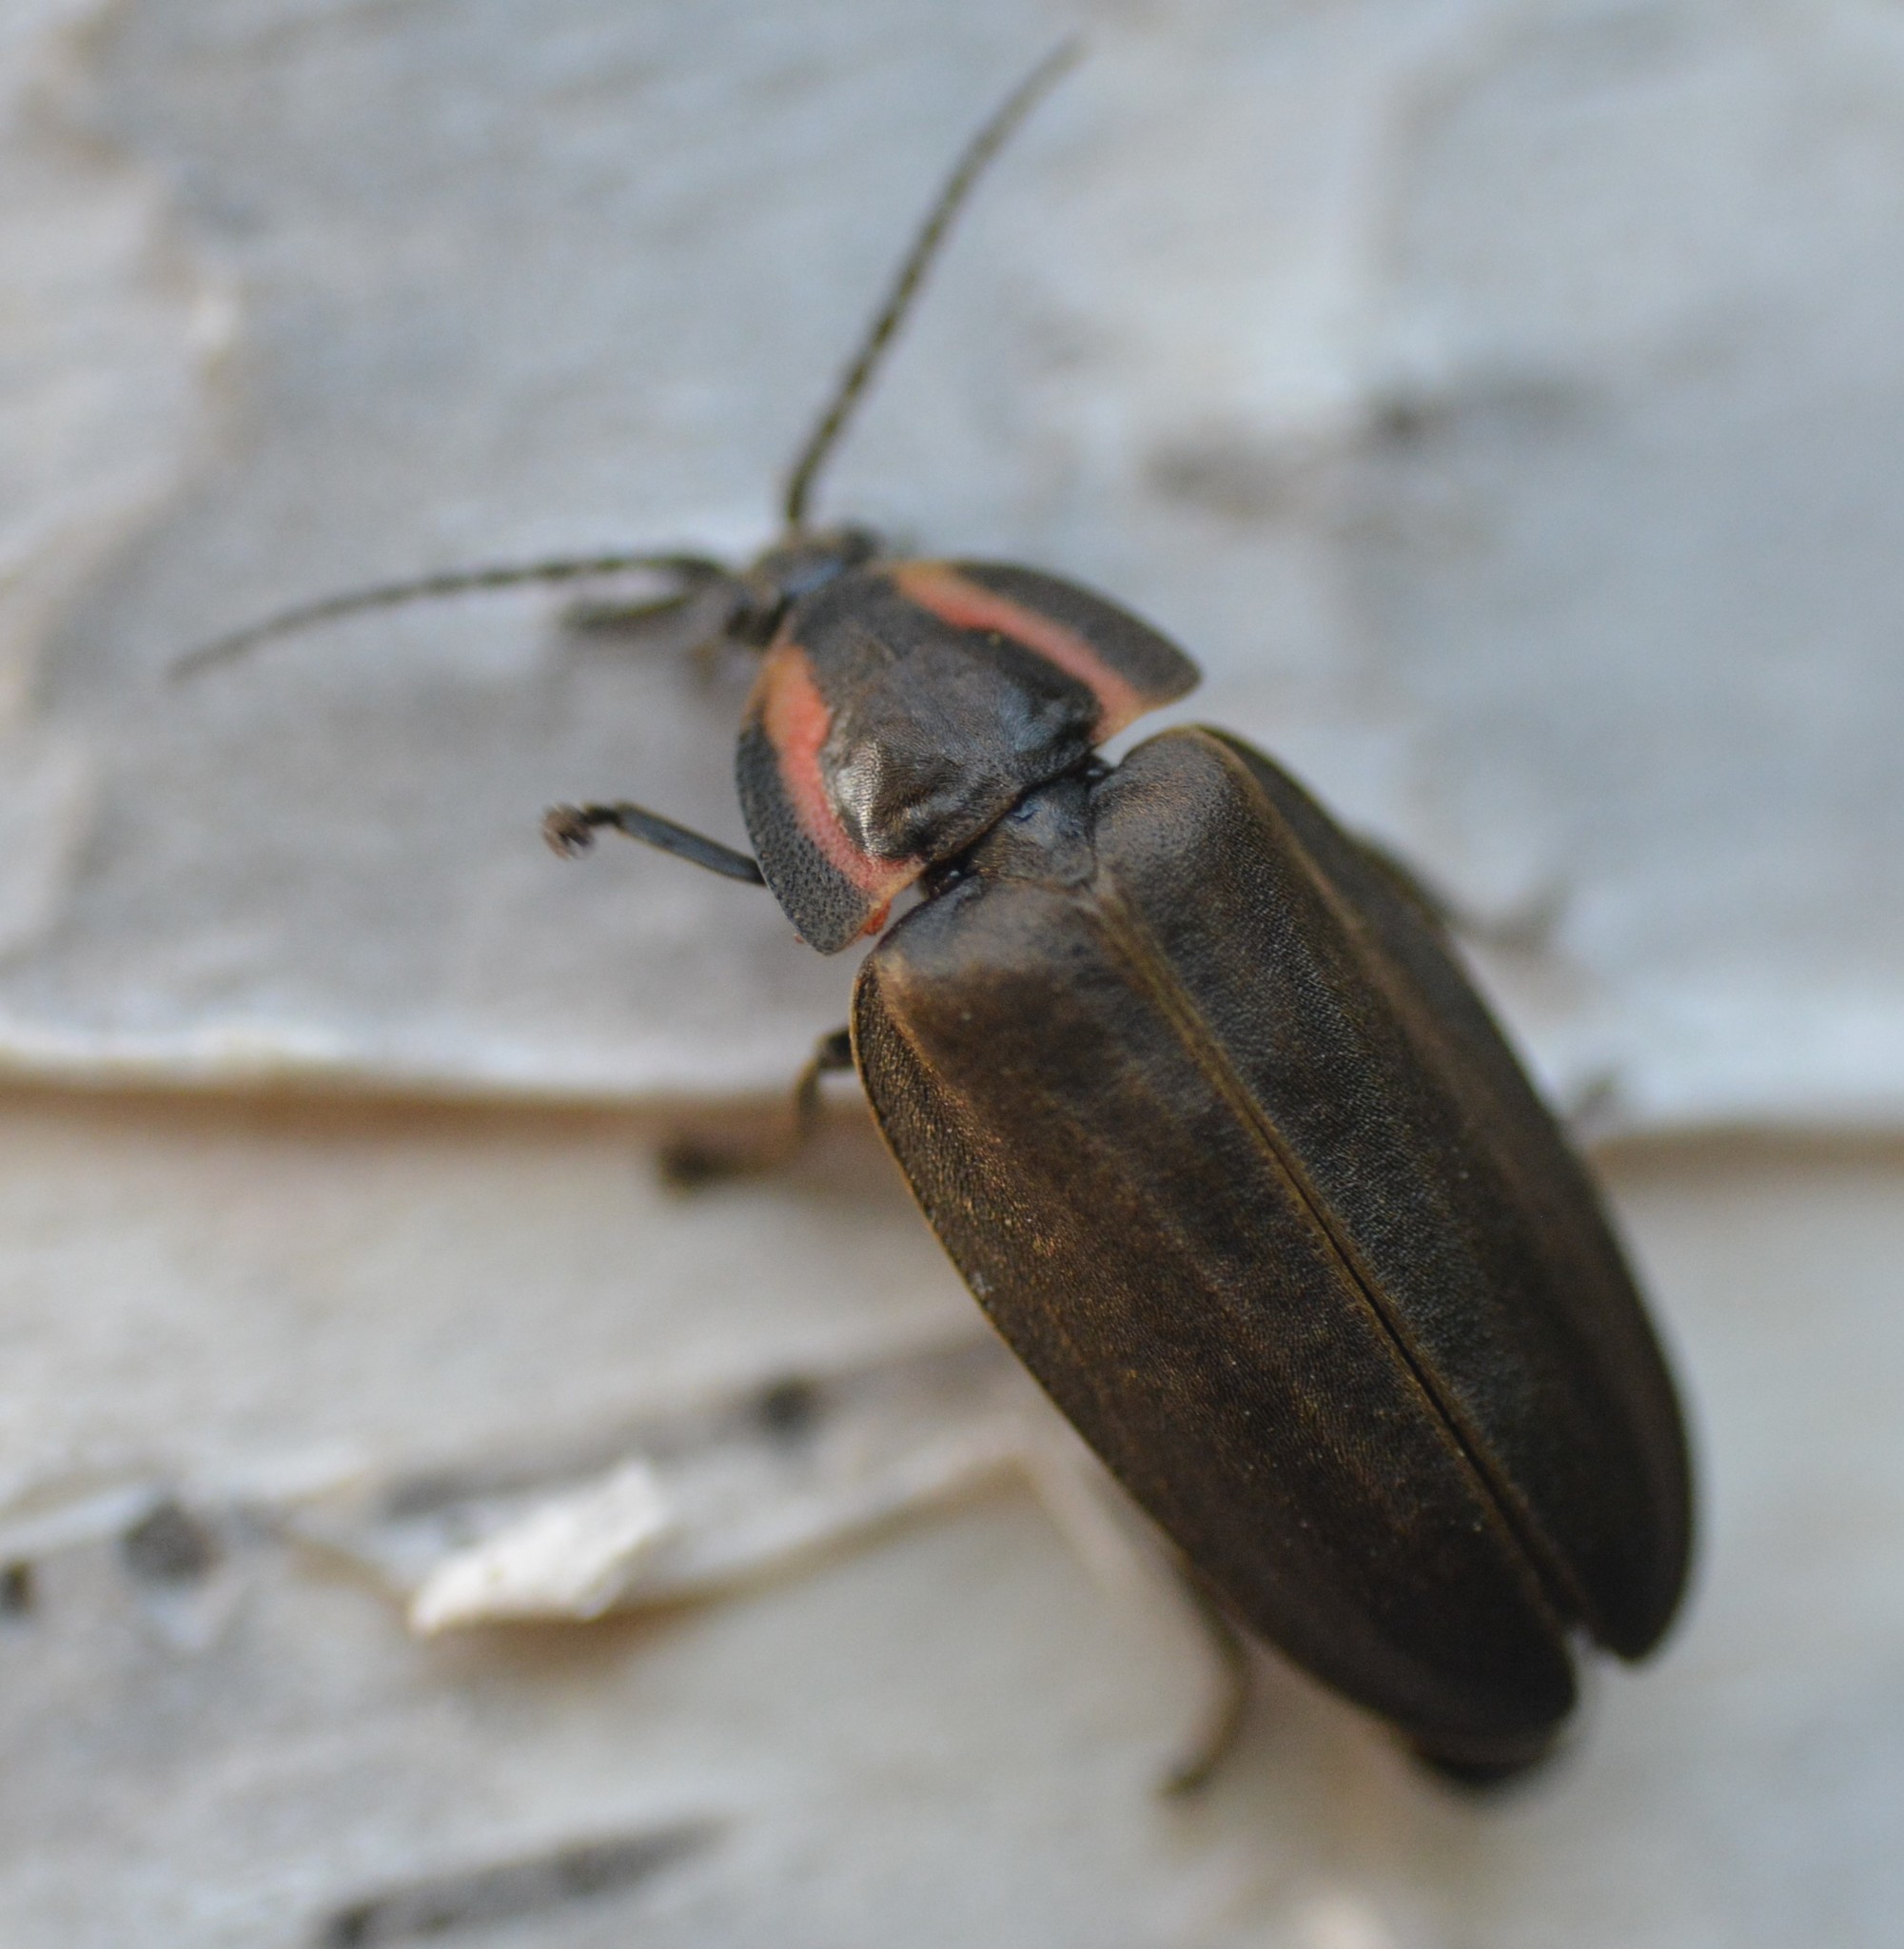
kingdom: Animalia
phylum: Arthropoda
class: Insecta
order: Coleoptera
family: Lampyridae
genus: Photinus
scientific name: Photinus corrusca
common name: Winter firefly
